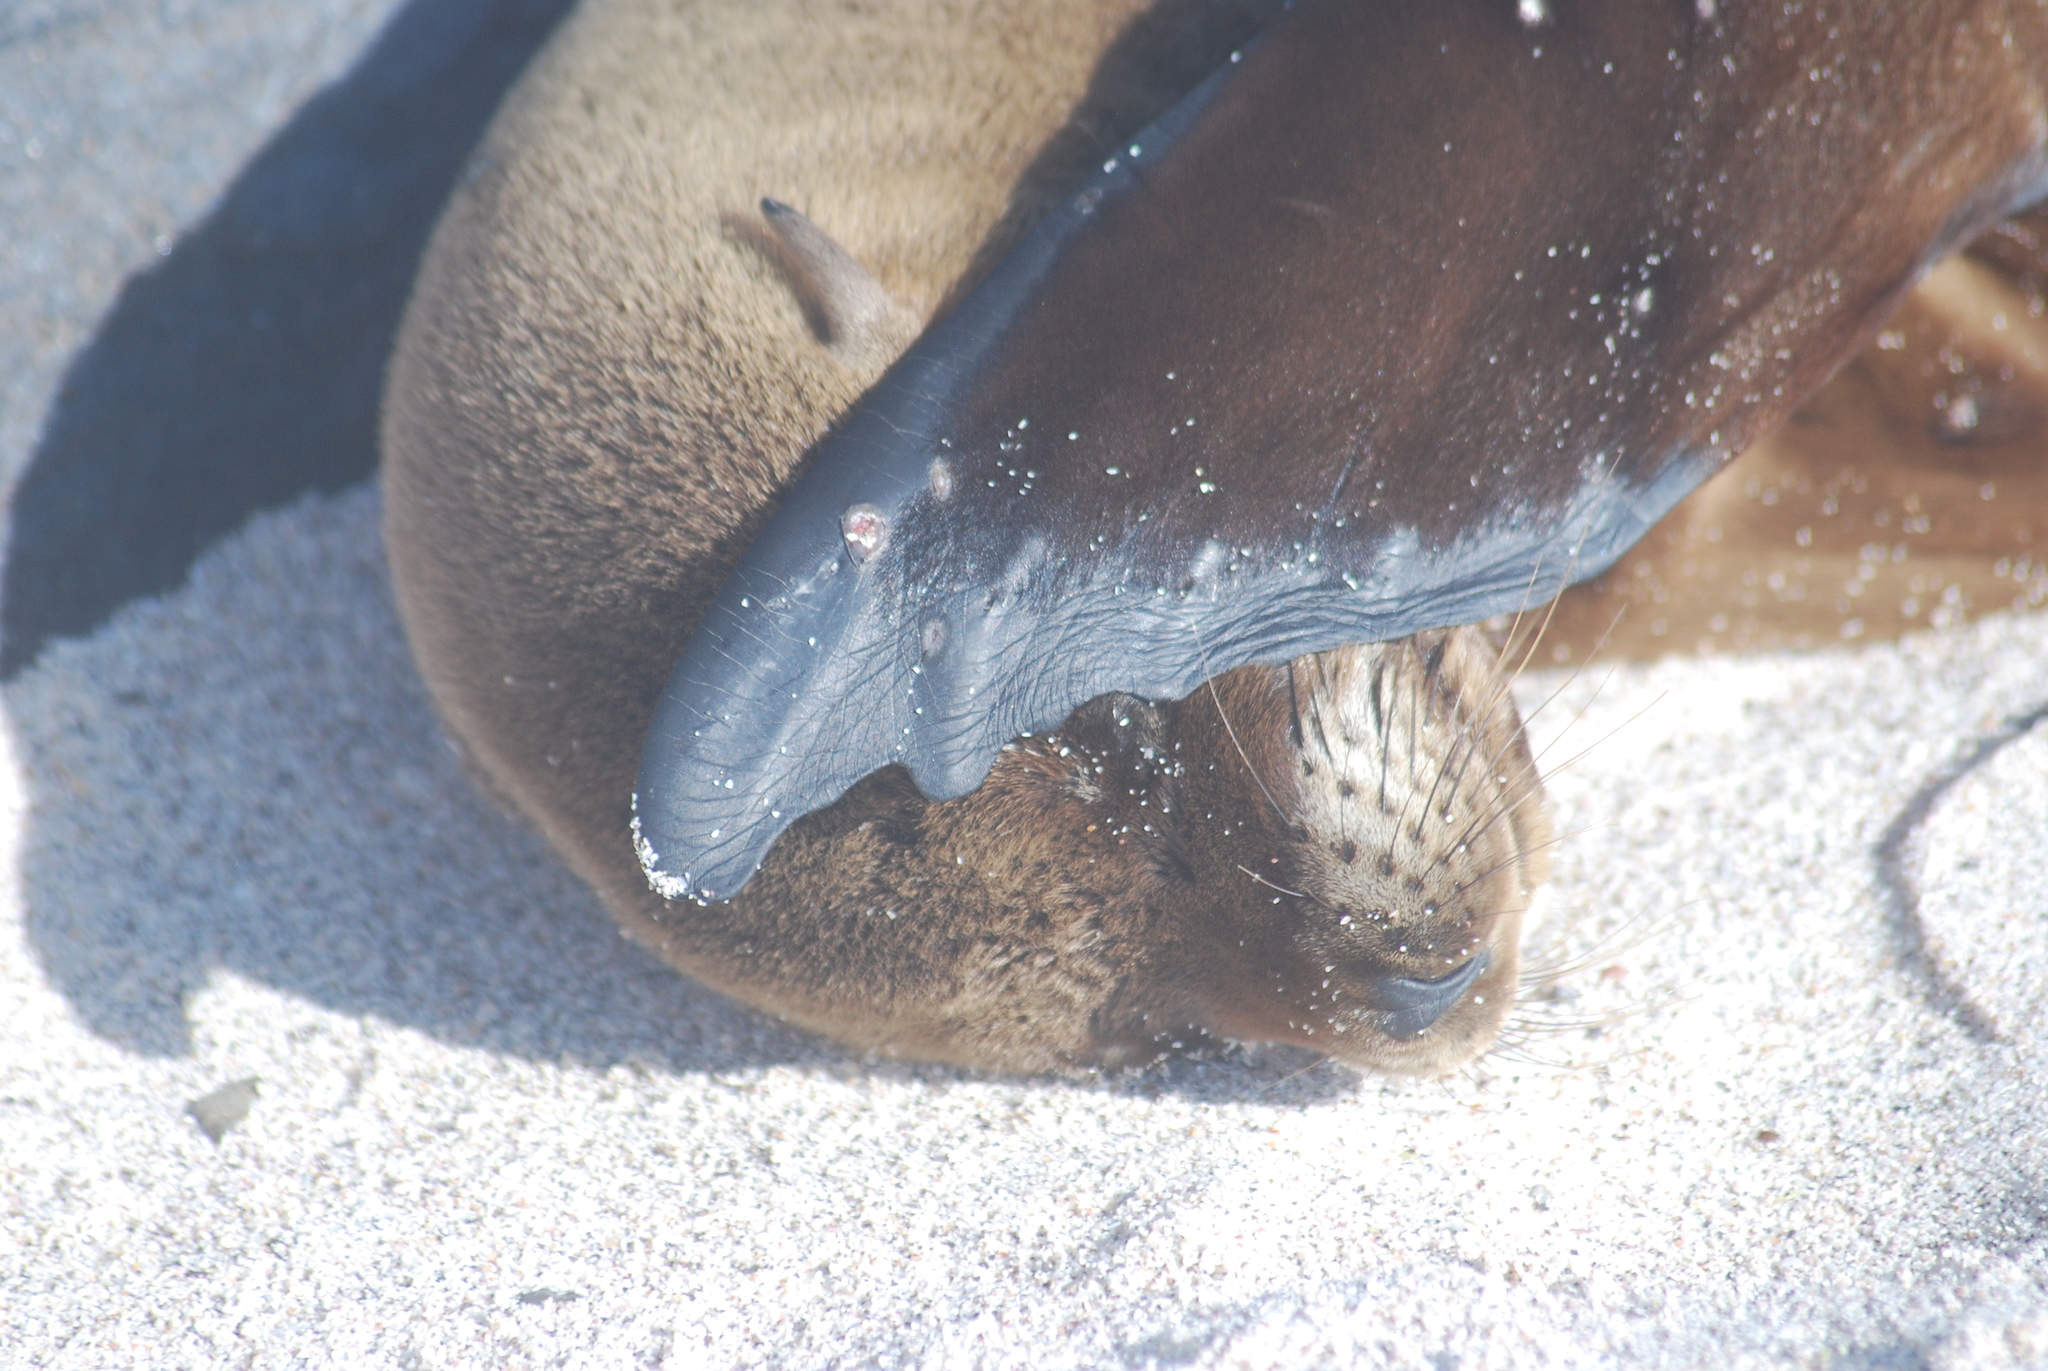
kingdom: Animalia
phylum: Chordata
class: Mammalia
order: Carnivora
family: Otariidae
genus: Zalophus
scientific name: Zalophus wollebaeki
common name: Galapagos sea lion
